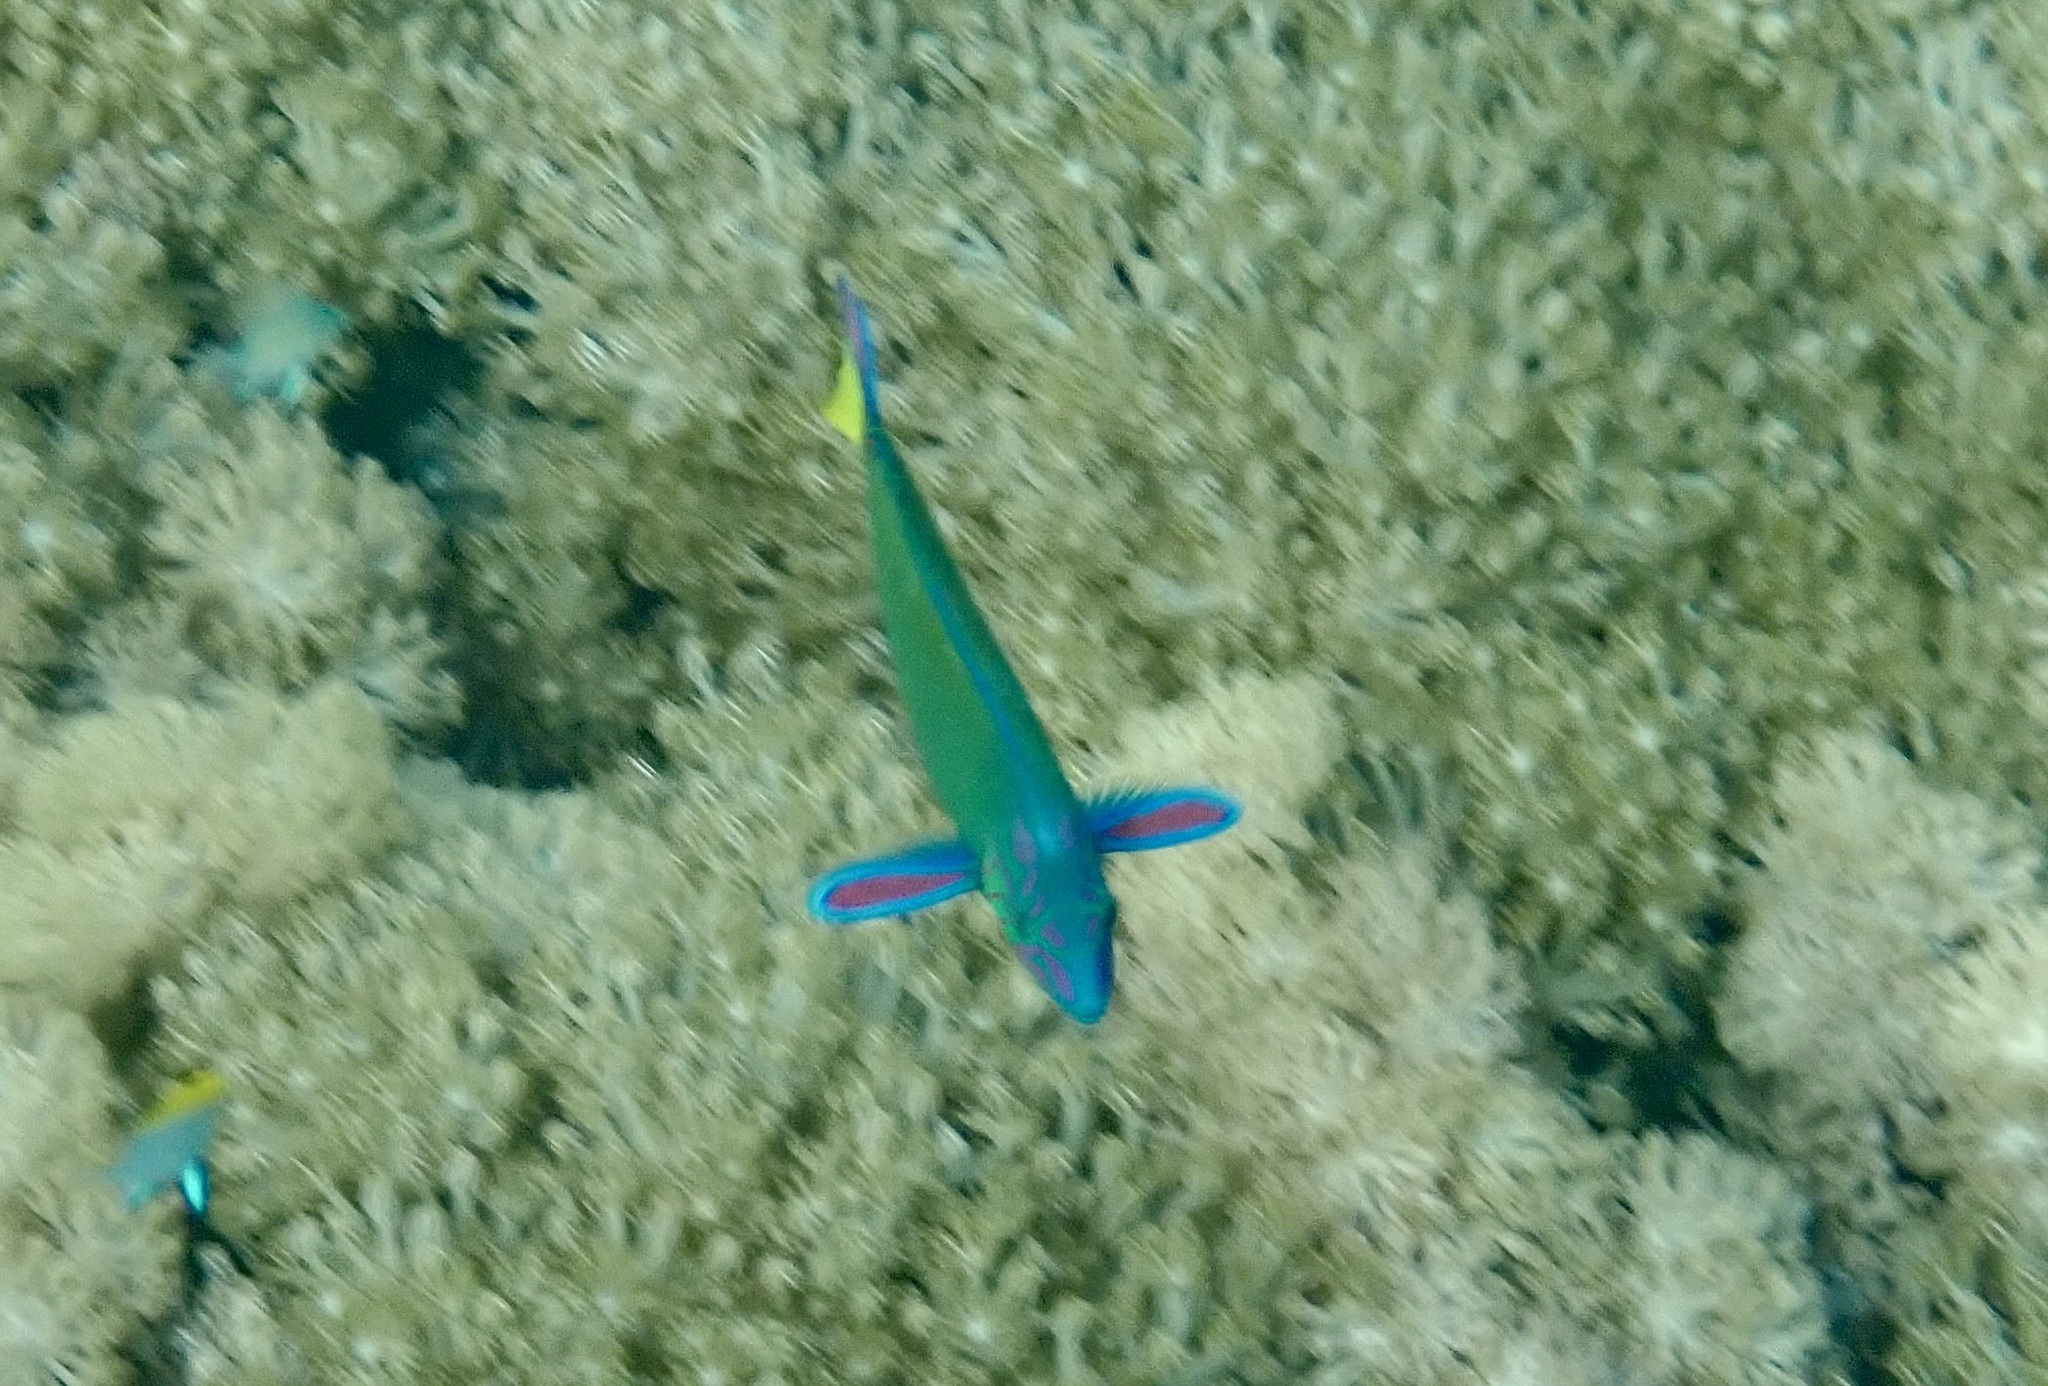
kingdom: Animalia
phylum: Chordata
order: Perciformes
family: Labridae
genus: Thalassoma
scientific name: Thalassoma lunare
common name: Blue wrasse
